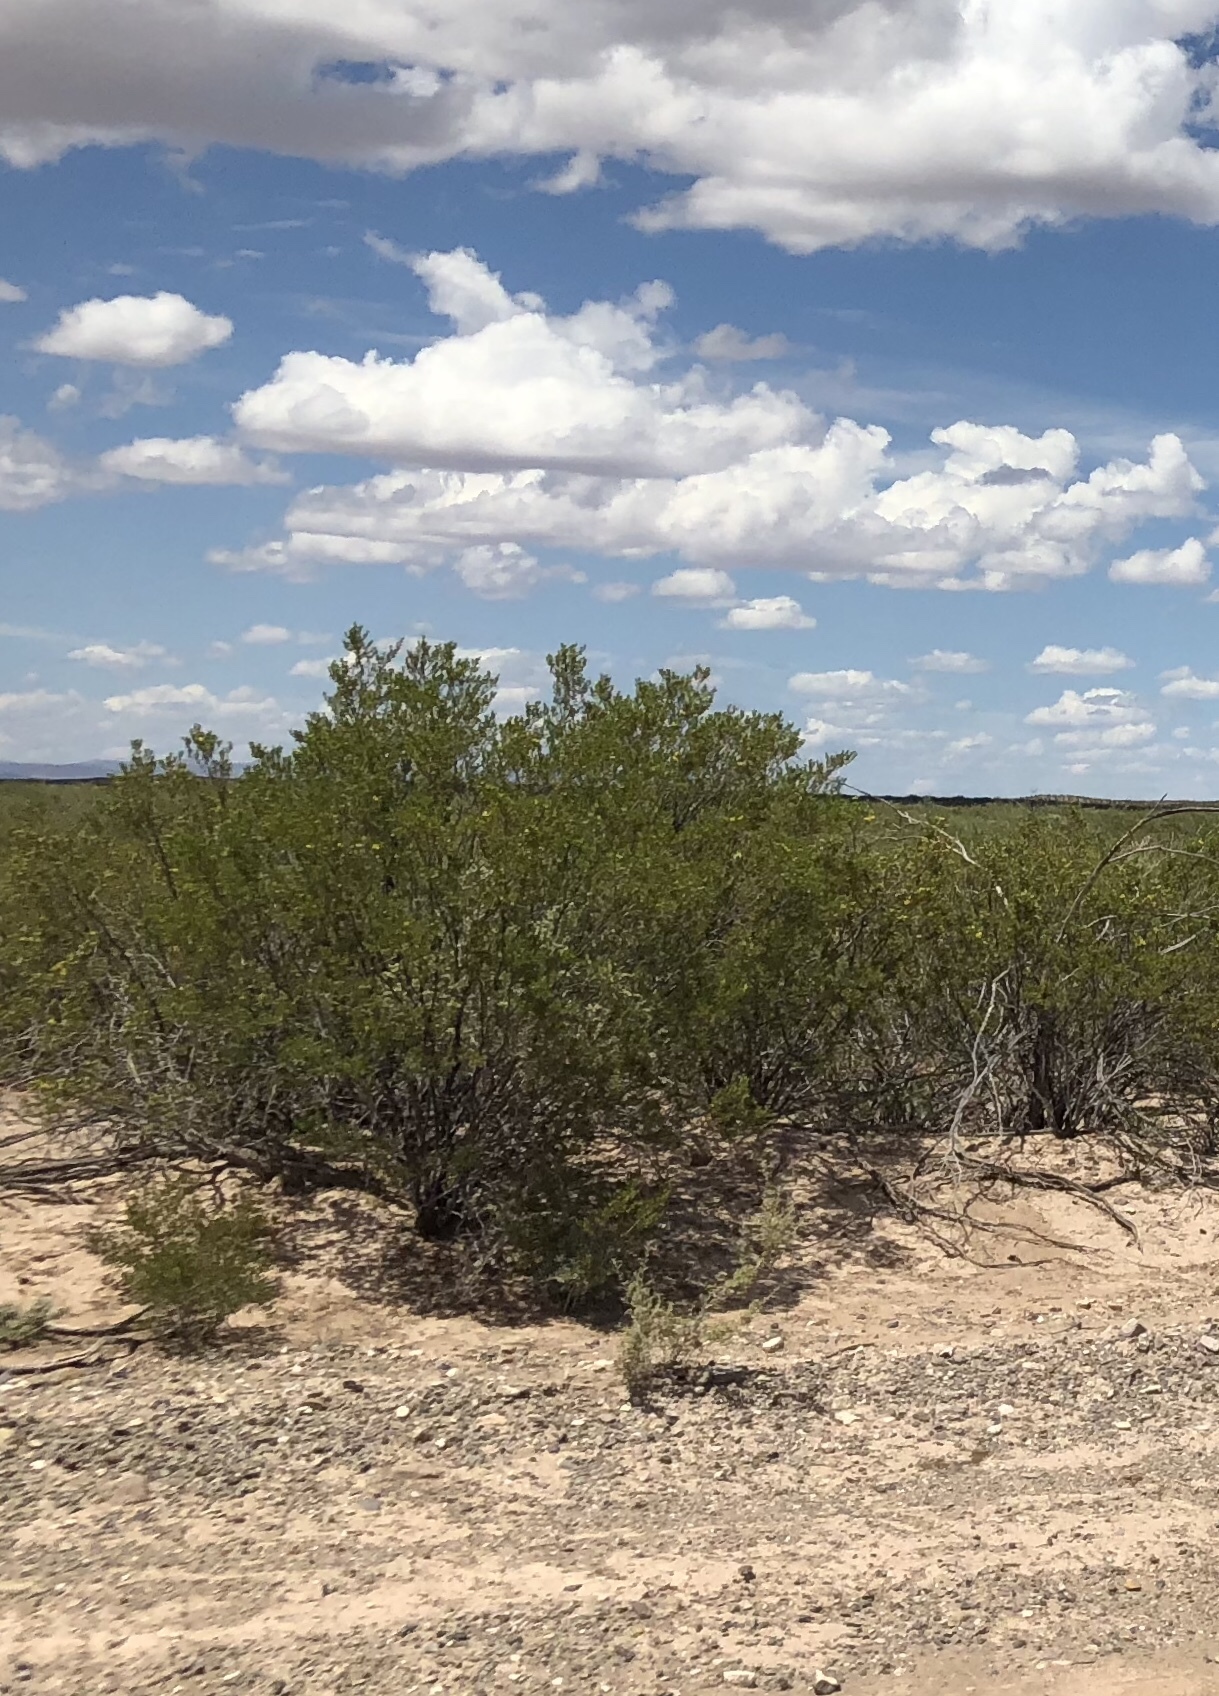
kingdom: Plantae
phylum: Tracheophyta
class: Magnoliopsida
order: Zygophyllales
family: Zygophyllaceae
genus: Larrea
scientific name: Larrea tridentata
